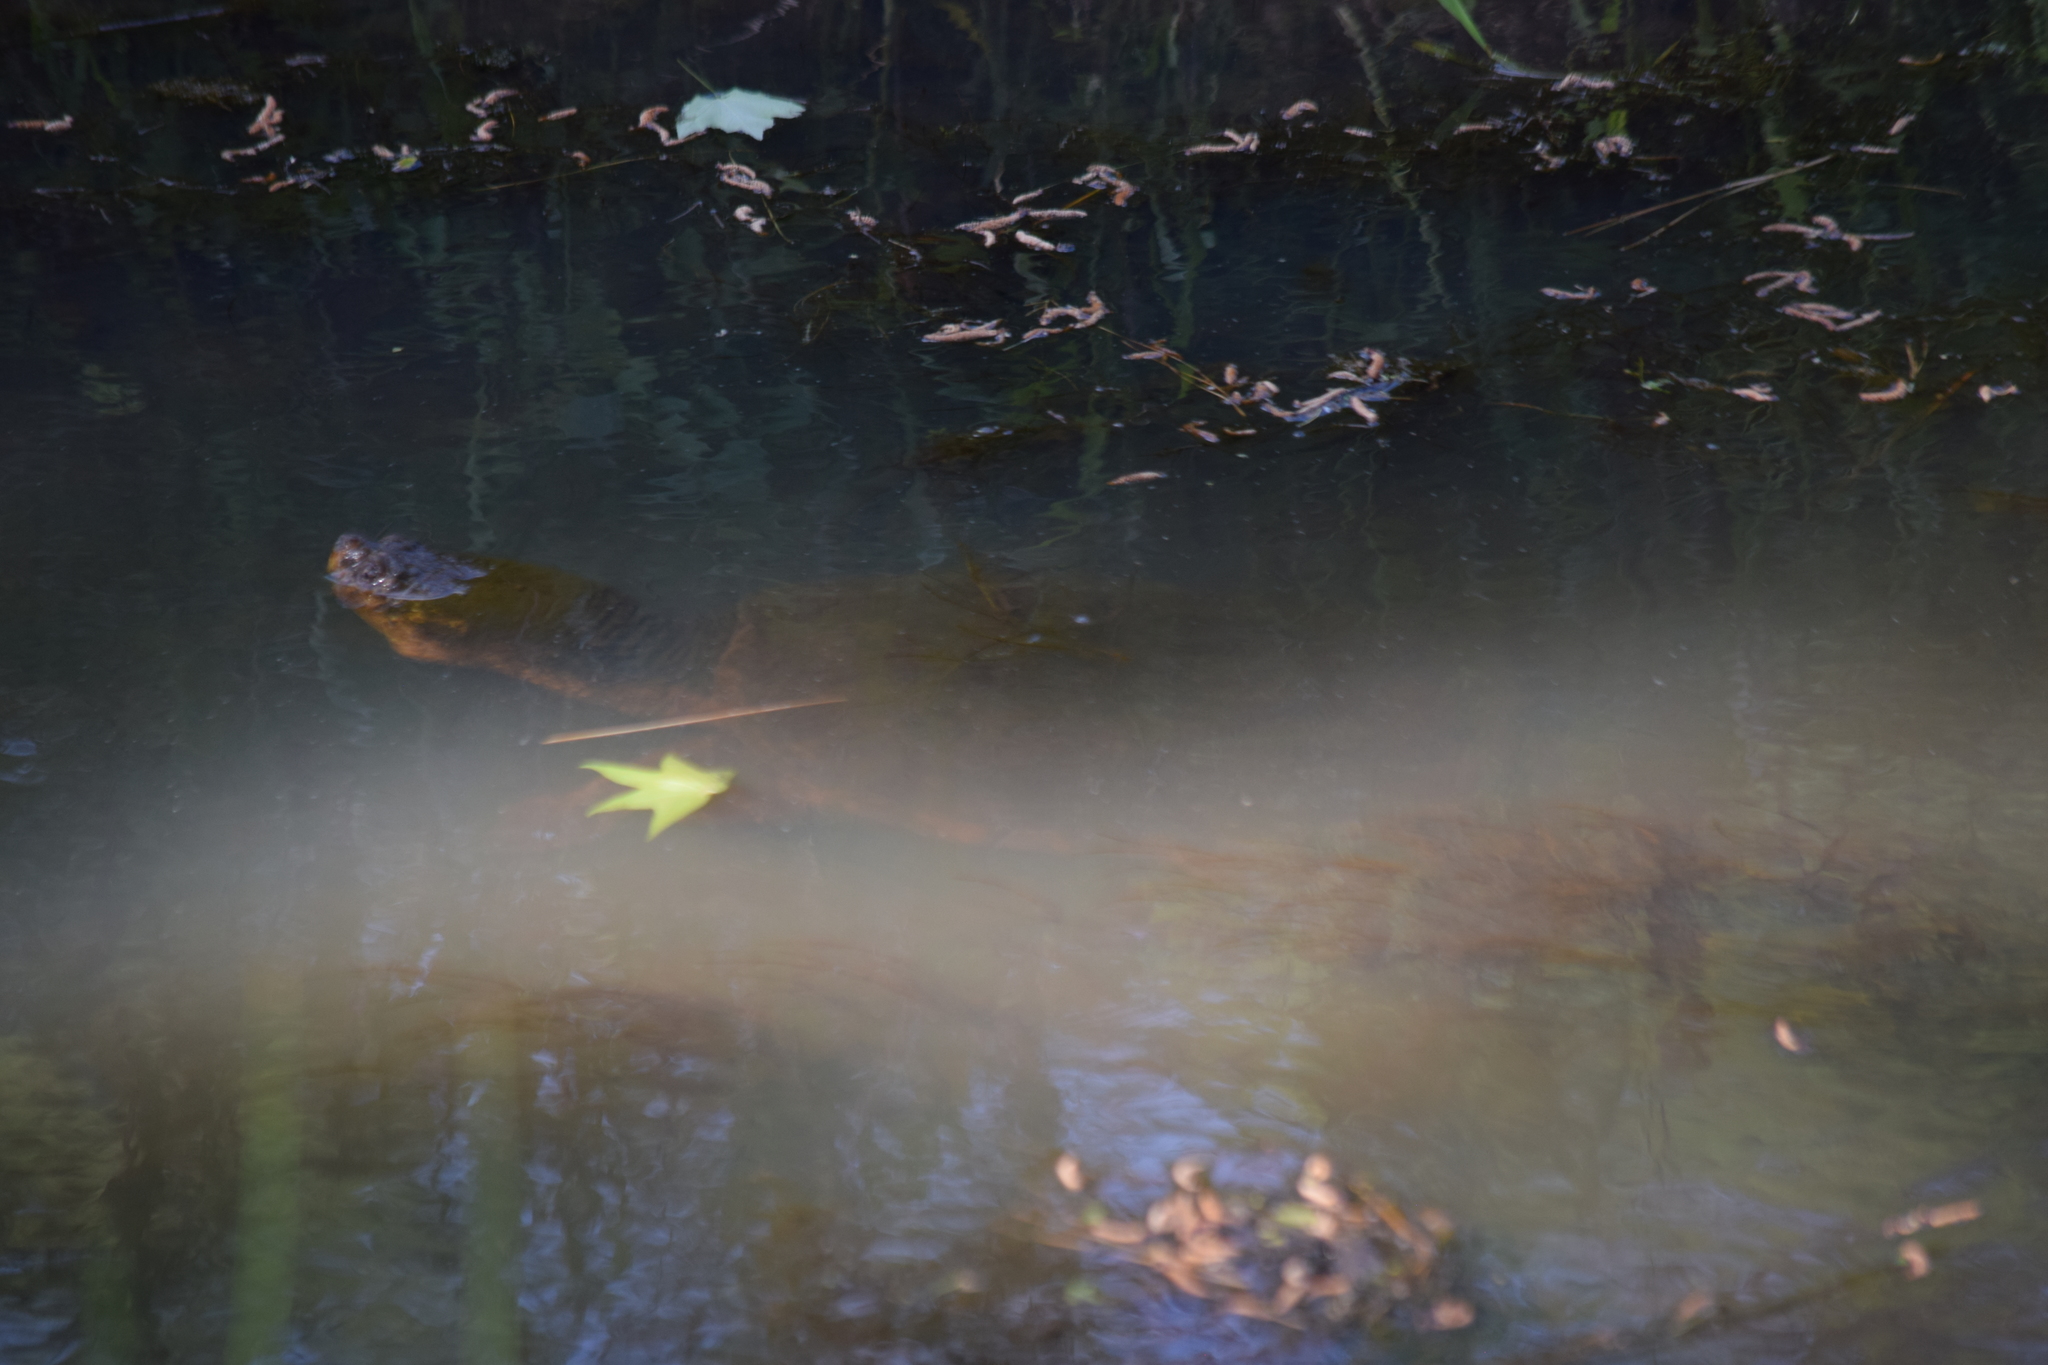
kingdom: Animalia
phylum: Chordata
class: Testudines
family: Chelydridae
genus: Chelydra
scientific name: Chelydra serpentina
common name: Common snapping turtle
